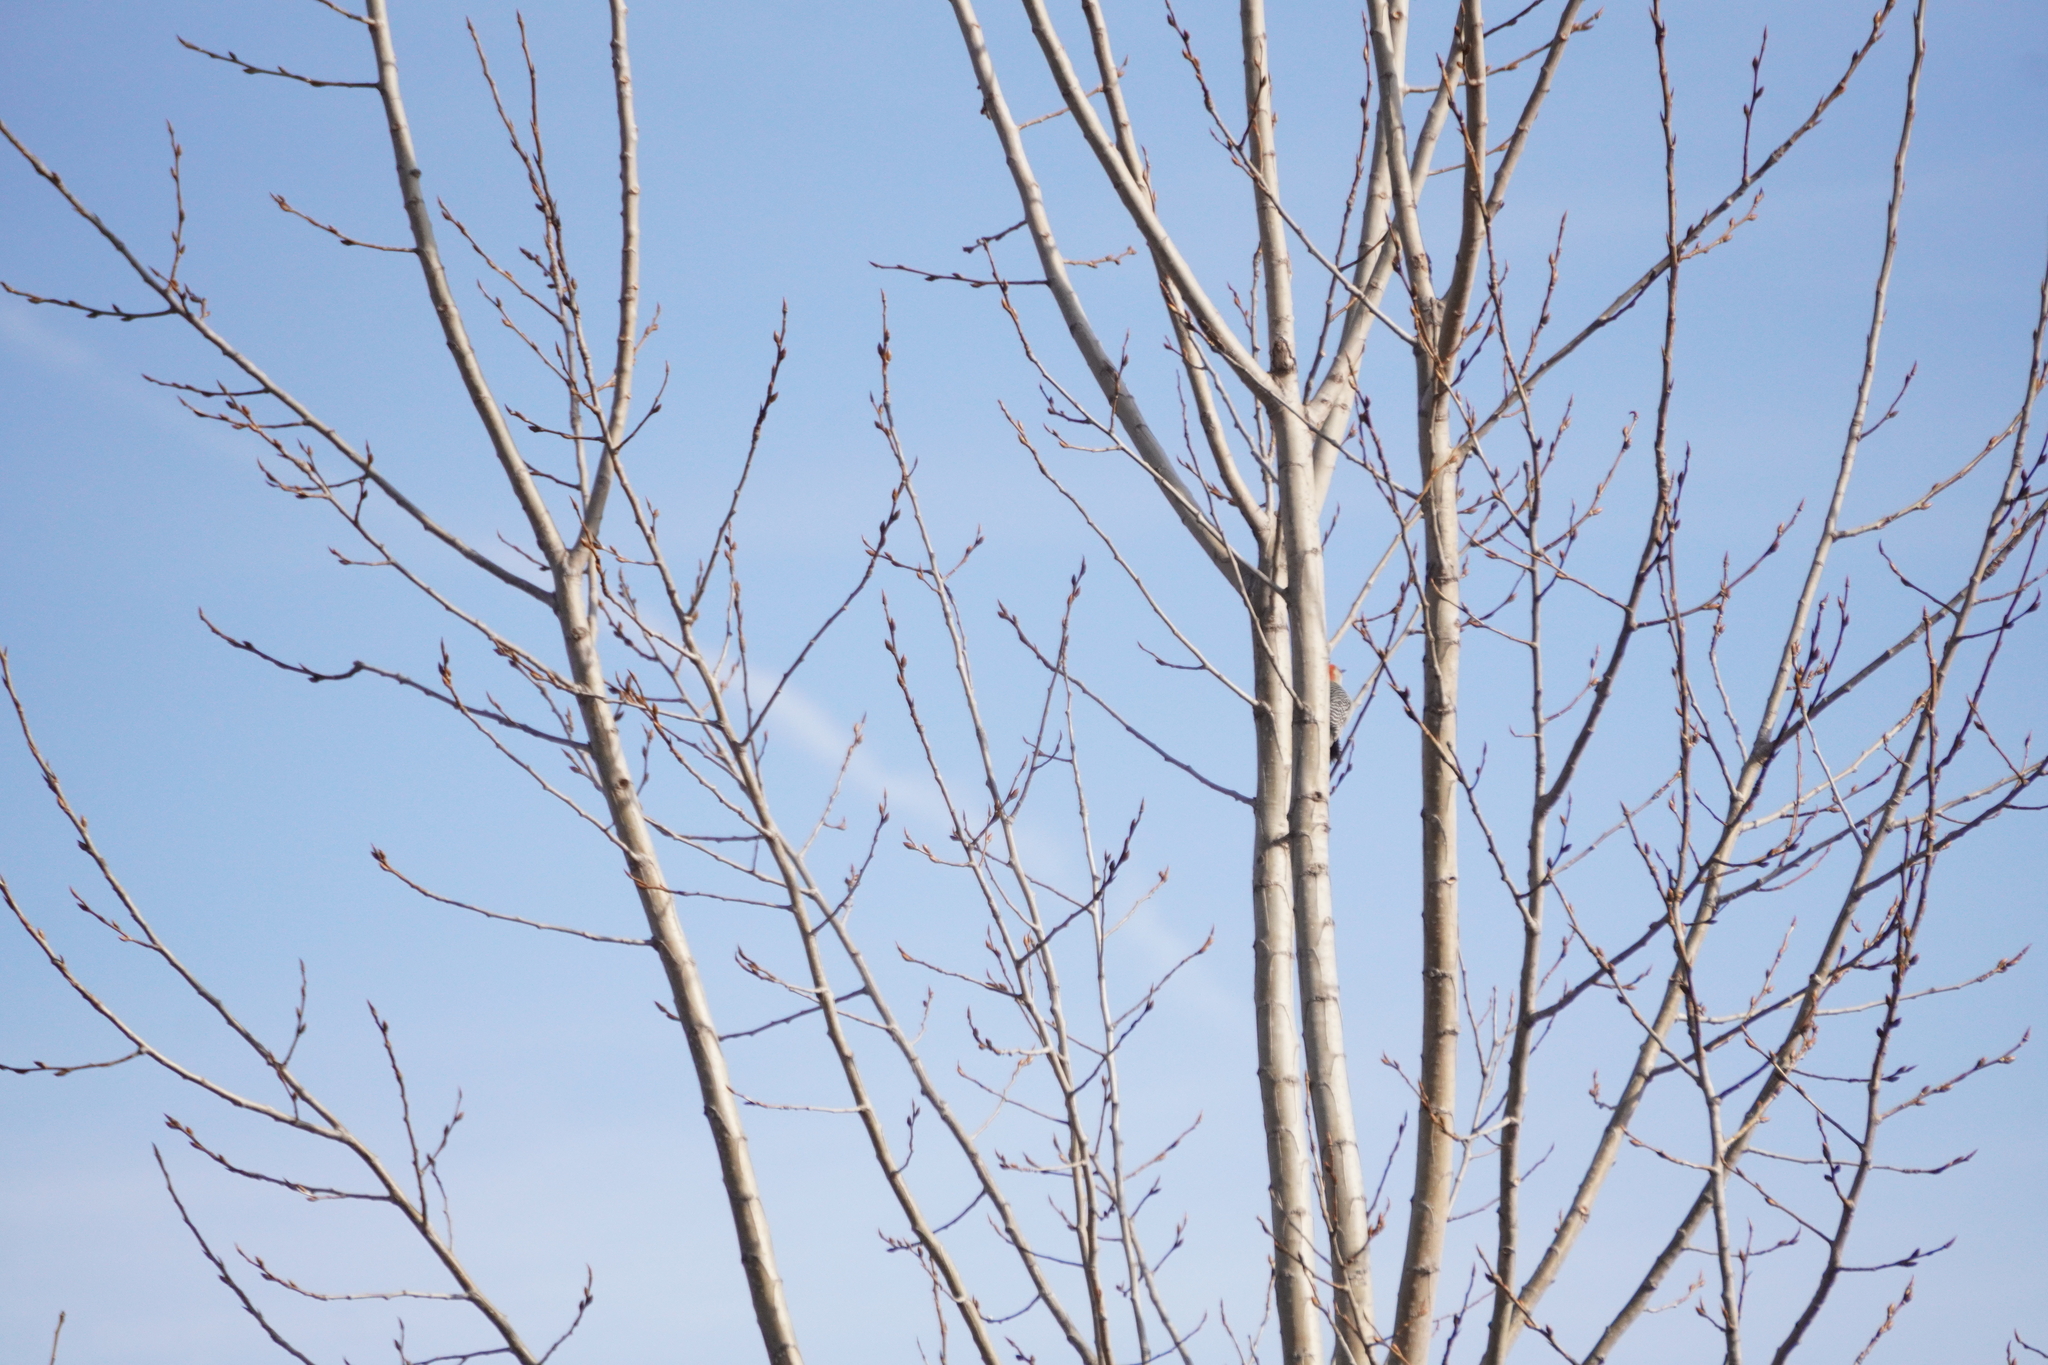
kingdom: Animalia
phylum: Chordata
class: Aves
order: Piciformes
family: Picidae
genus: Melanerpes
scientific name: Melanerpes carolinus
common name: Red-bellied woodpecker
